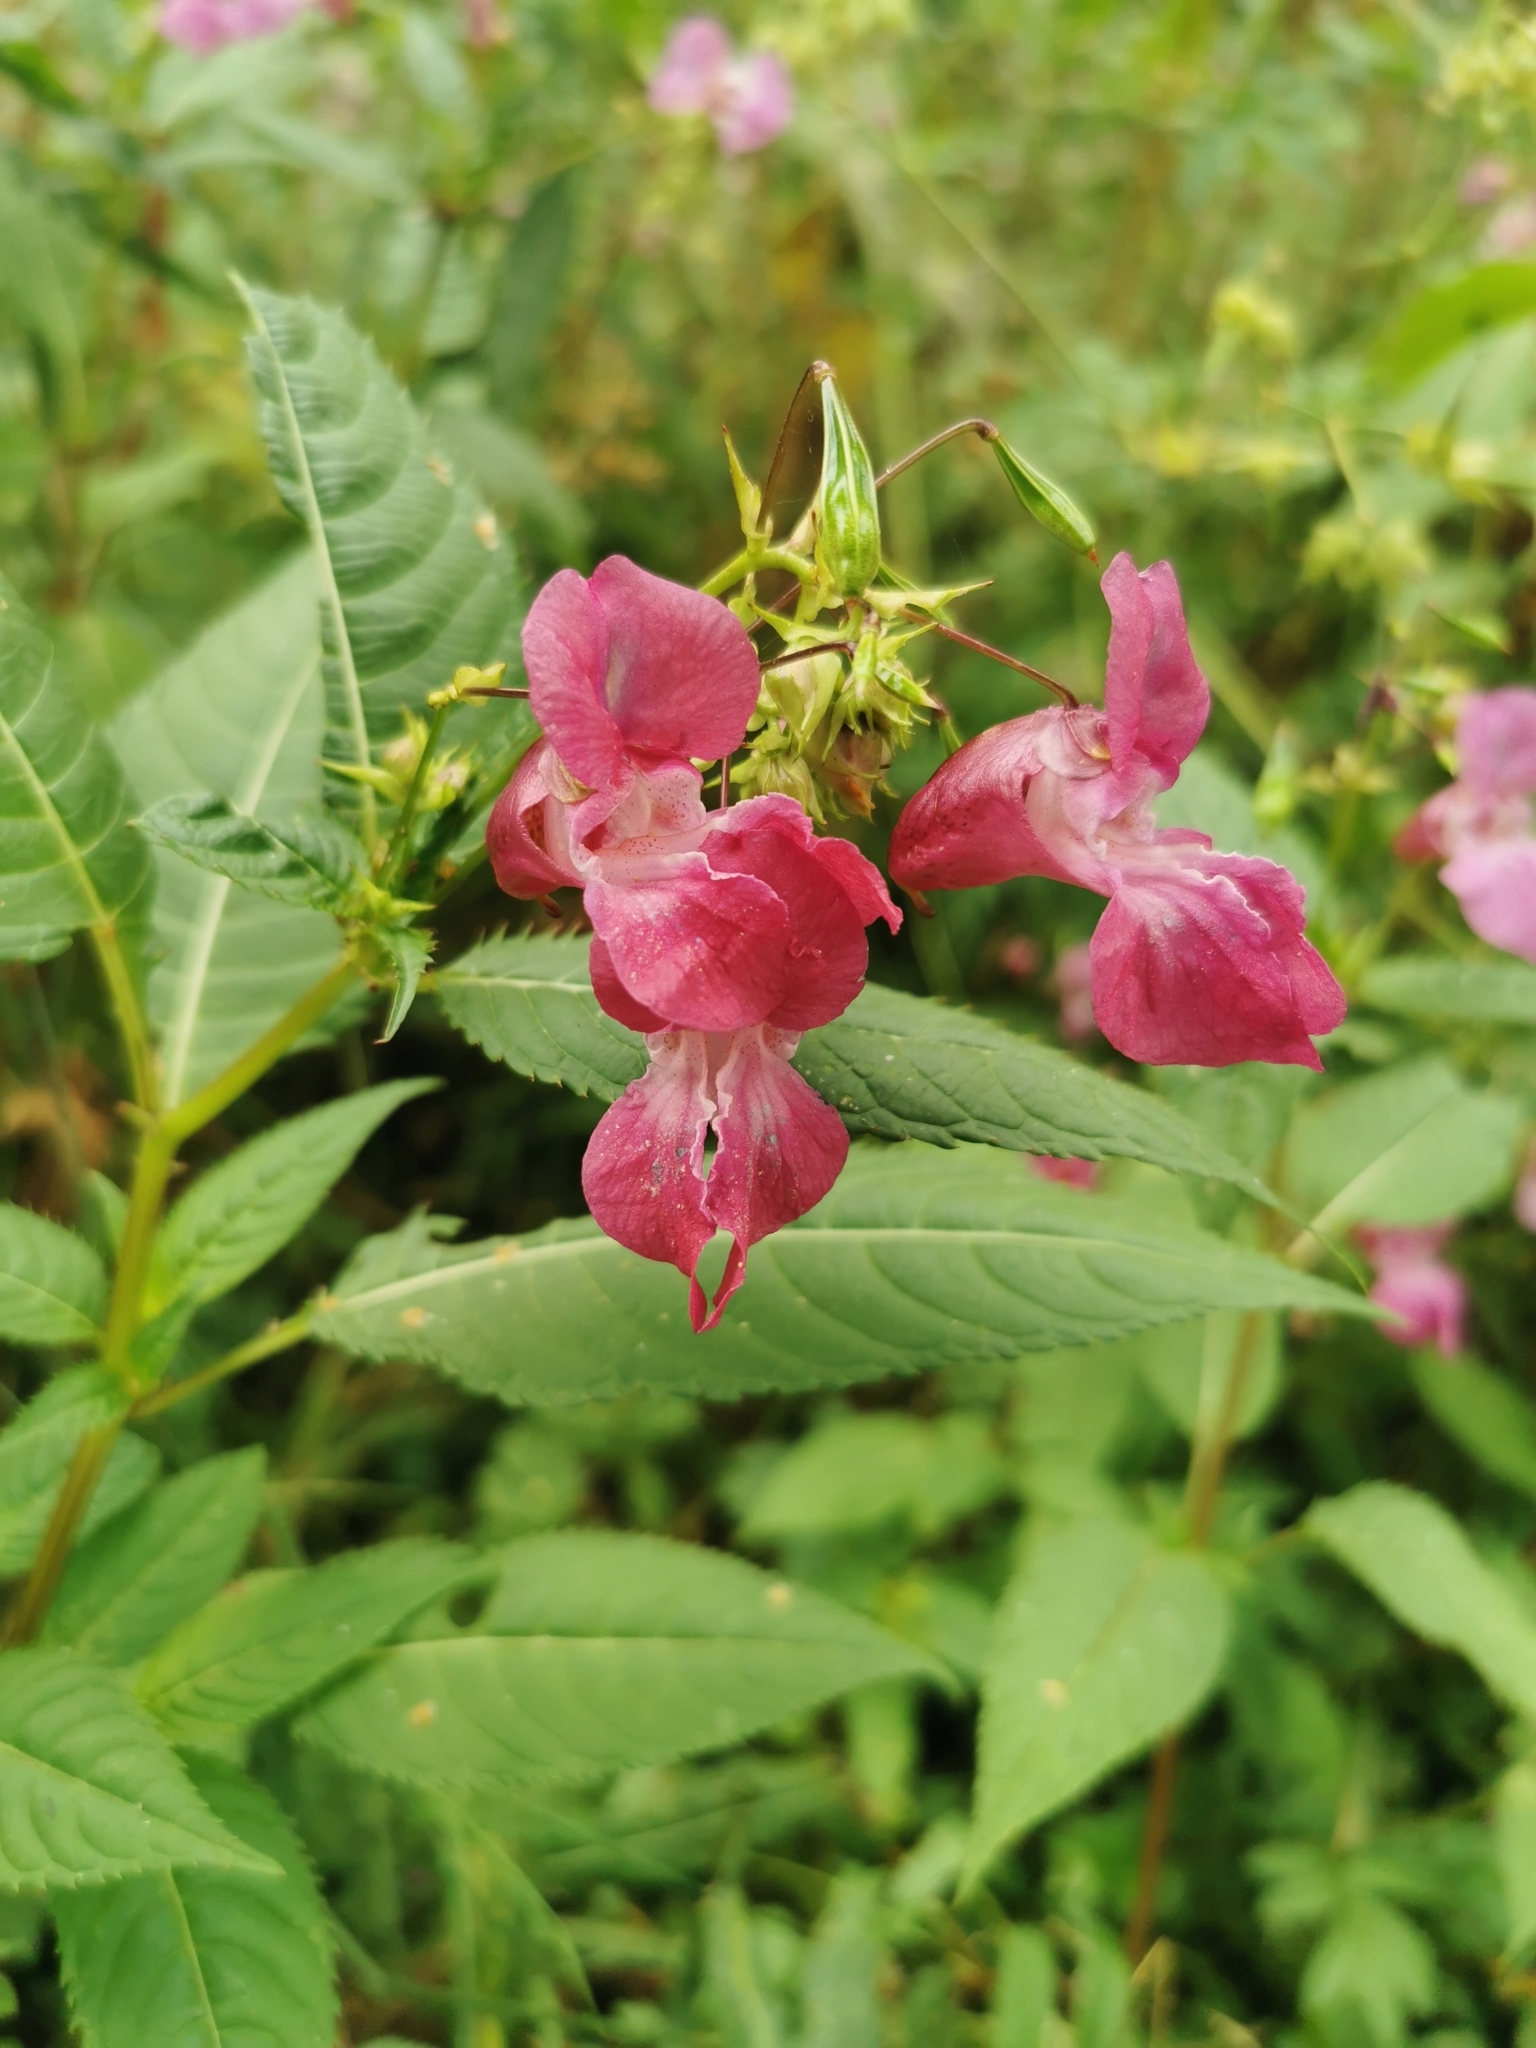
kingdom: Plantae
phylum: Tracheophyta
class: Magnoliopsida
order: Ericales
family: Balsaminaceae
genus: Impatiens
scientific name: Impatiens glandulifera
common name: Himalayan balsam
